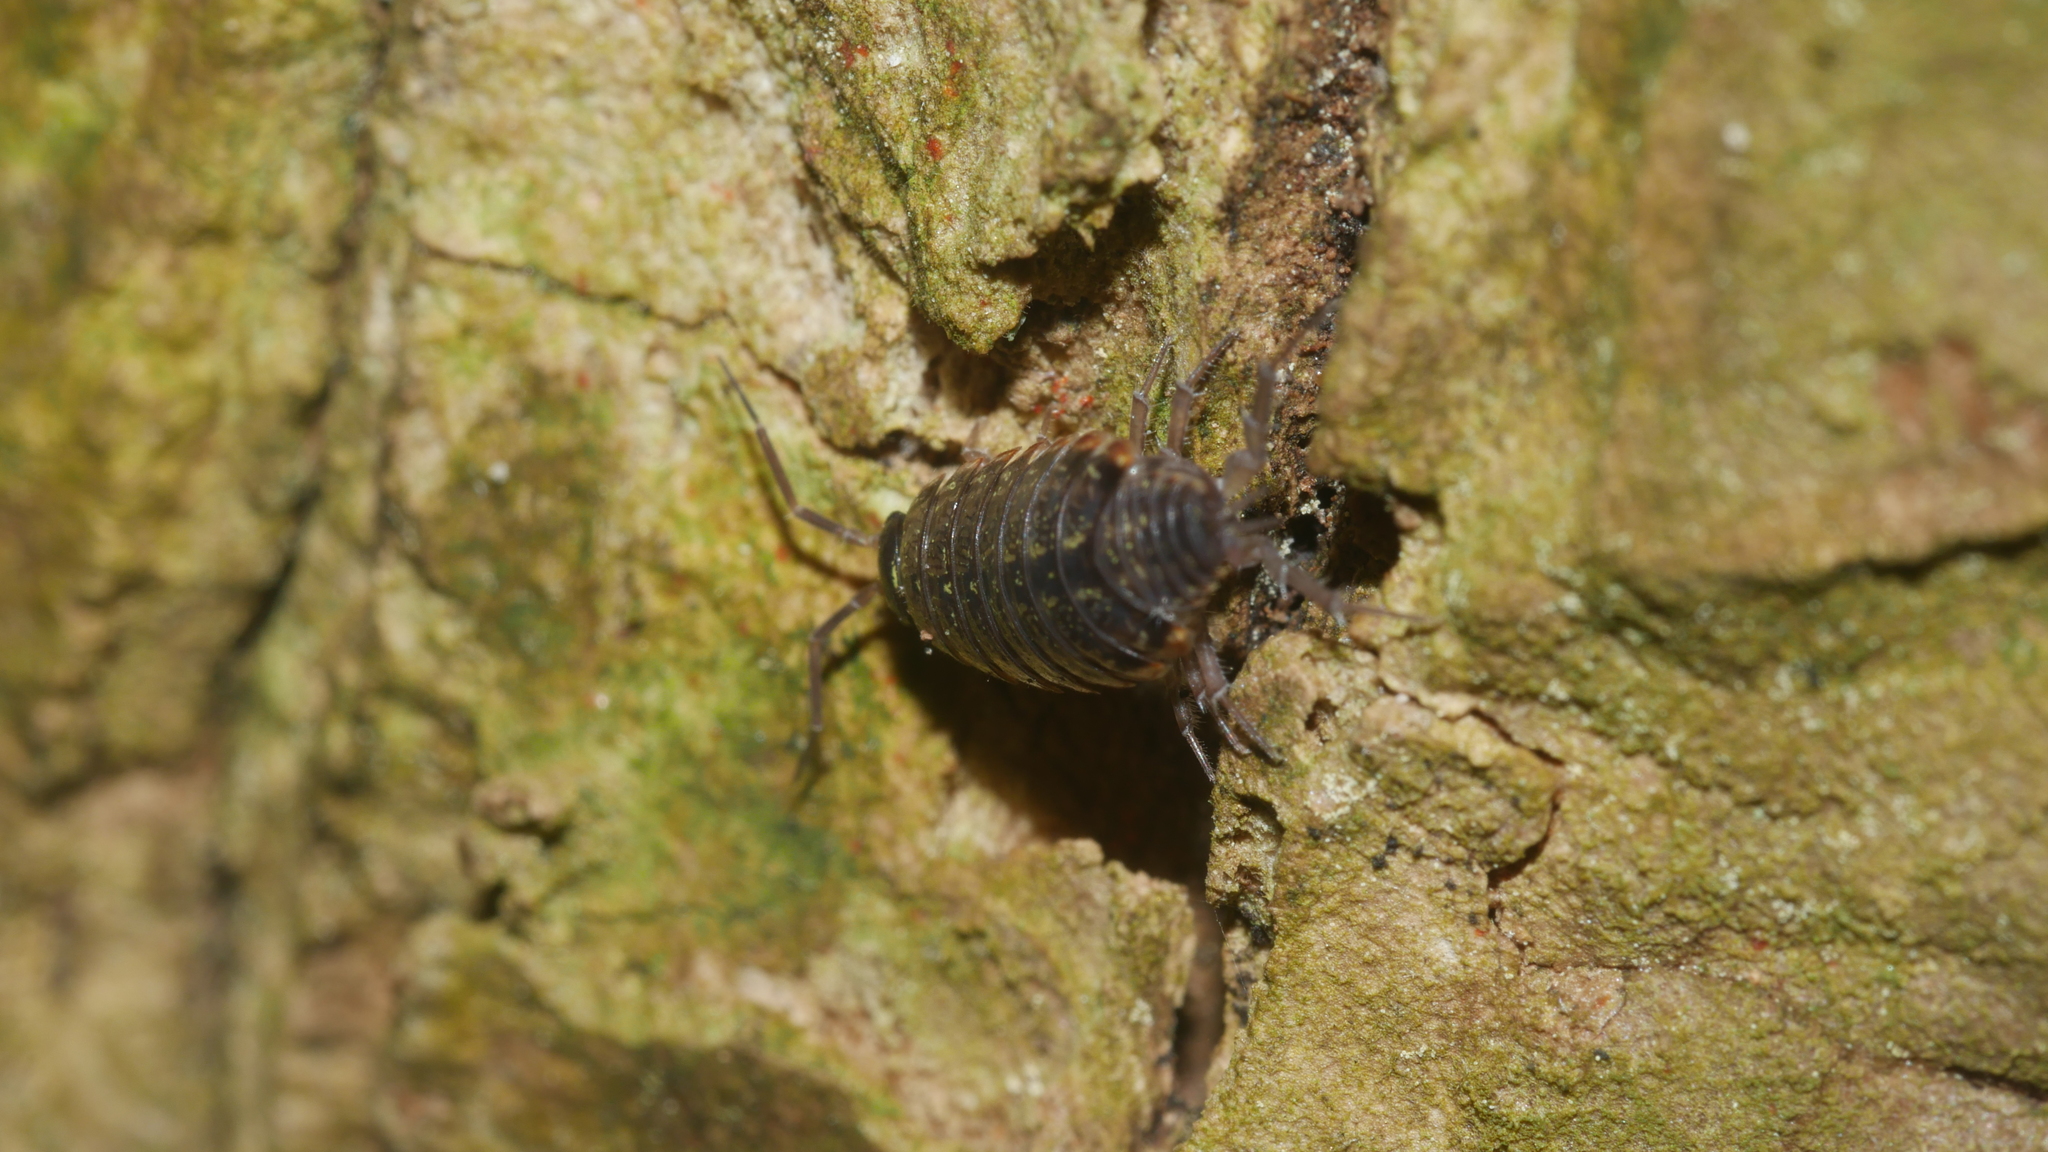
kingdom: Animalia
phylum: Arthropoda
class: Malacostraca
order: Isopoda
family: Philosciidae
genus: Philoscia
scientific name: Philoscia muscorum
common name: Common striped woodlouse
